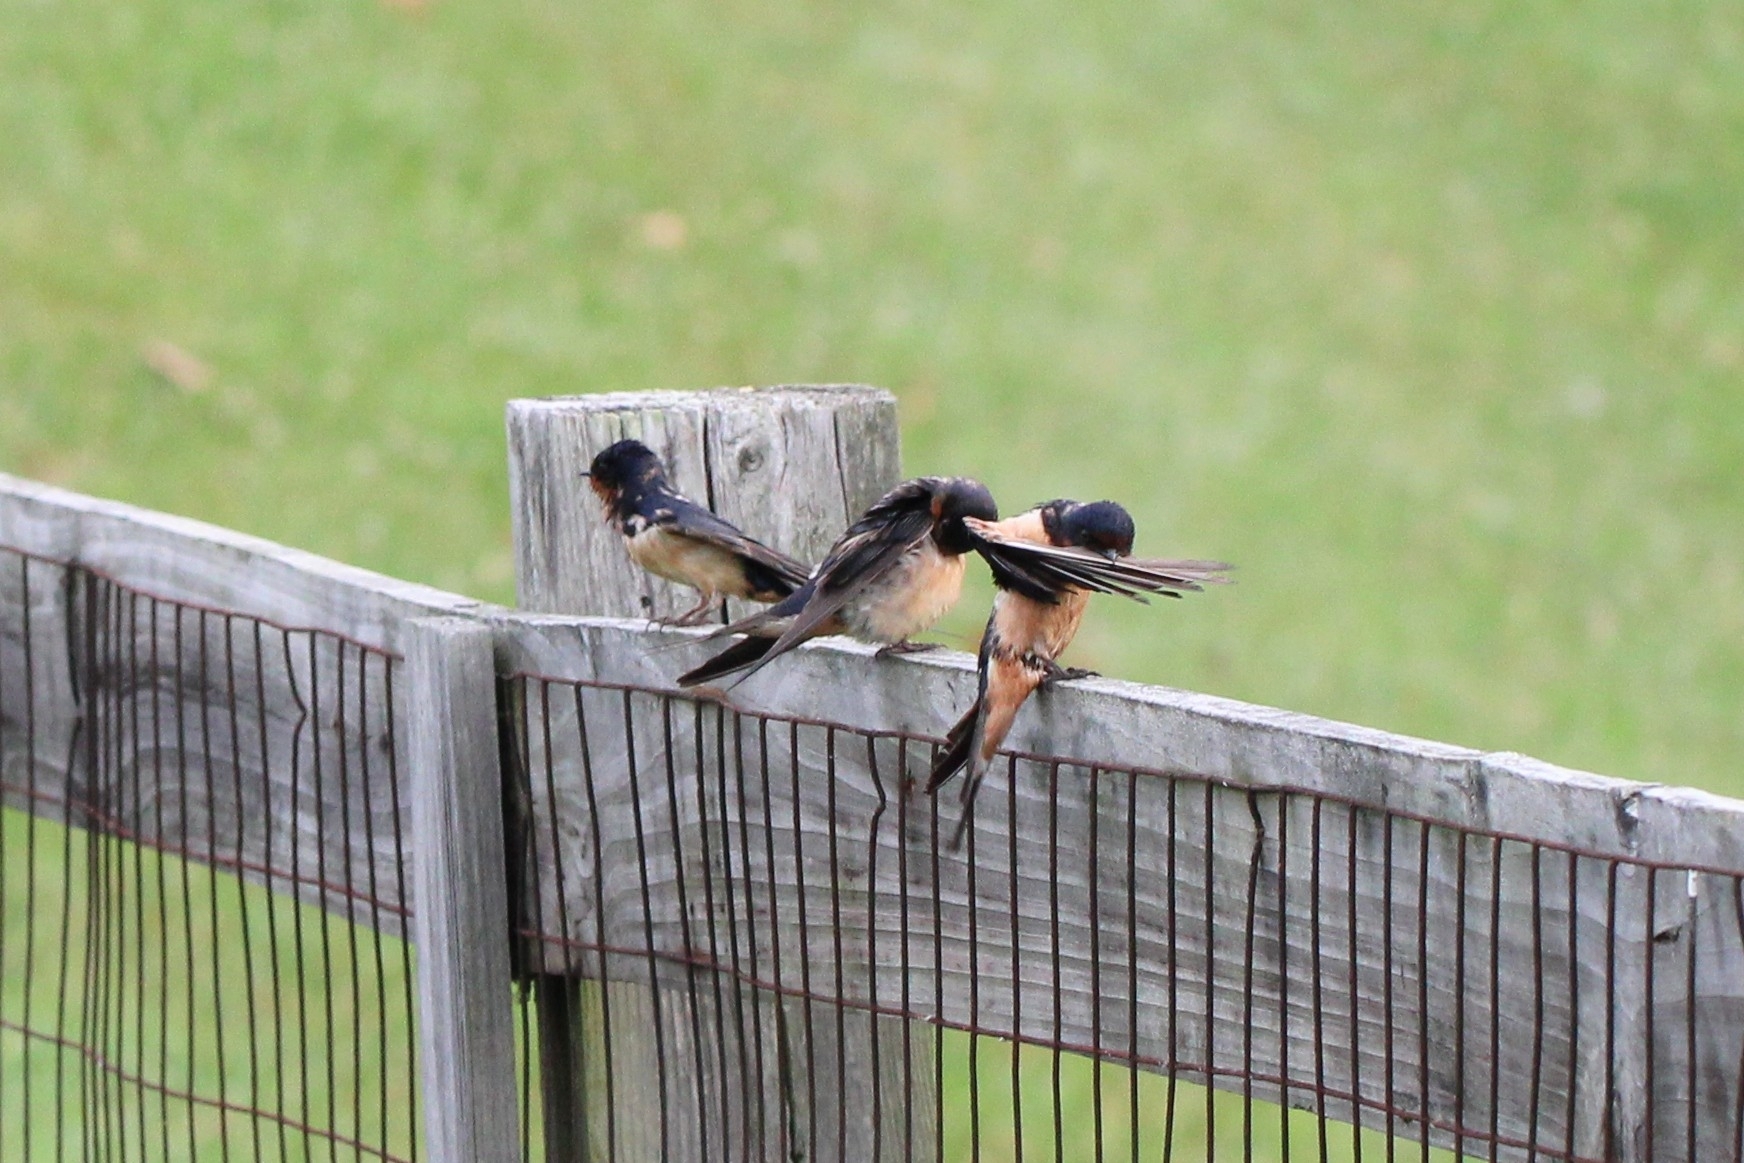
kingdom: Animalia
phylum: Chordata
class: Aves
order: Passeriformes
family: Hirundinidae
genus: Hirundo
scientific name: Hirundo rustica
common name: Barn swallow
